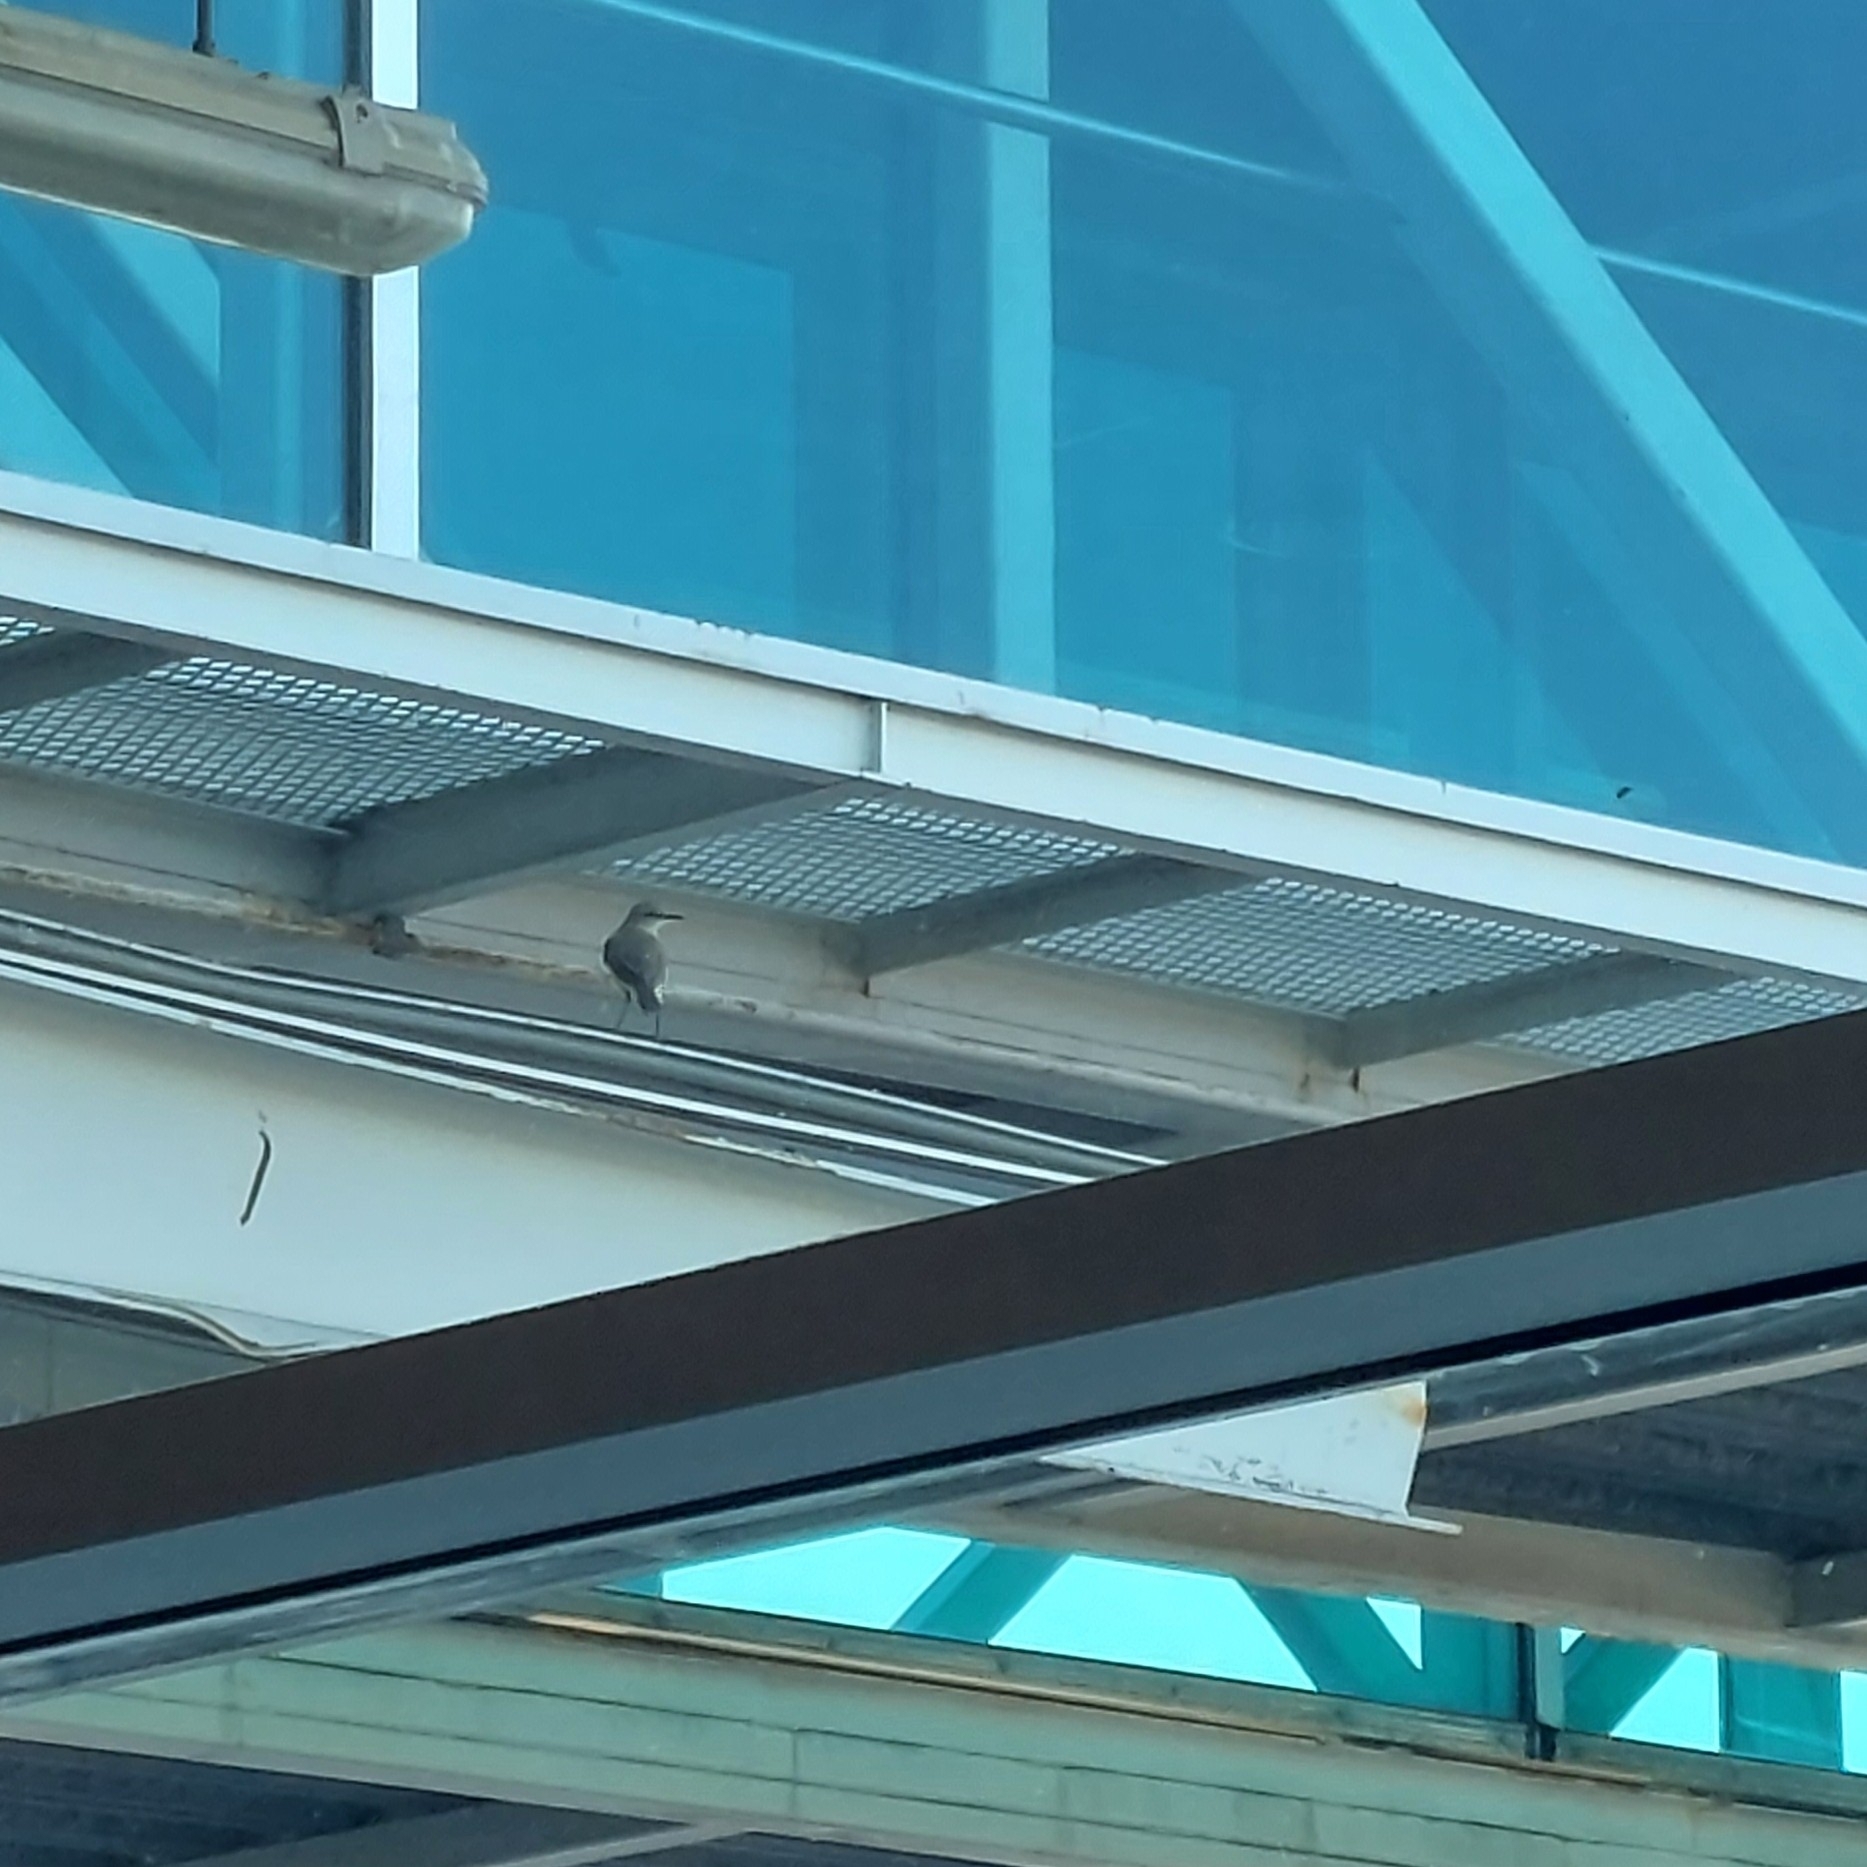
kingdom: Animalia
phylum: Chordata
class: Aves
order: Passeriformes
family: Tyrannidae
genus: Machetornis
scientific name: Machetornis rixosa
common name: Cattle tyrant
